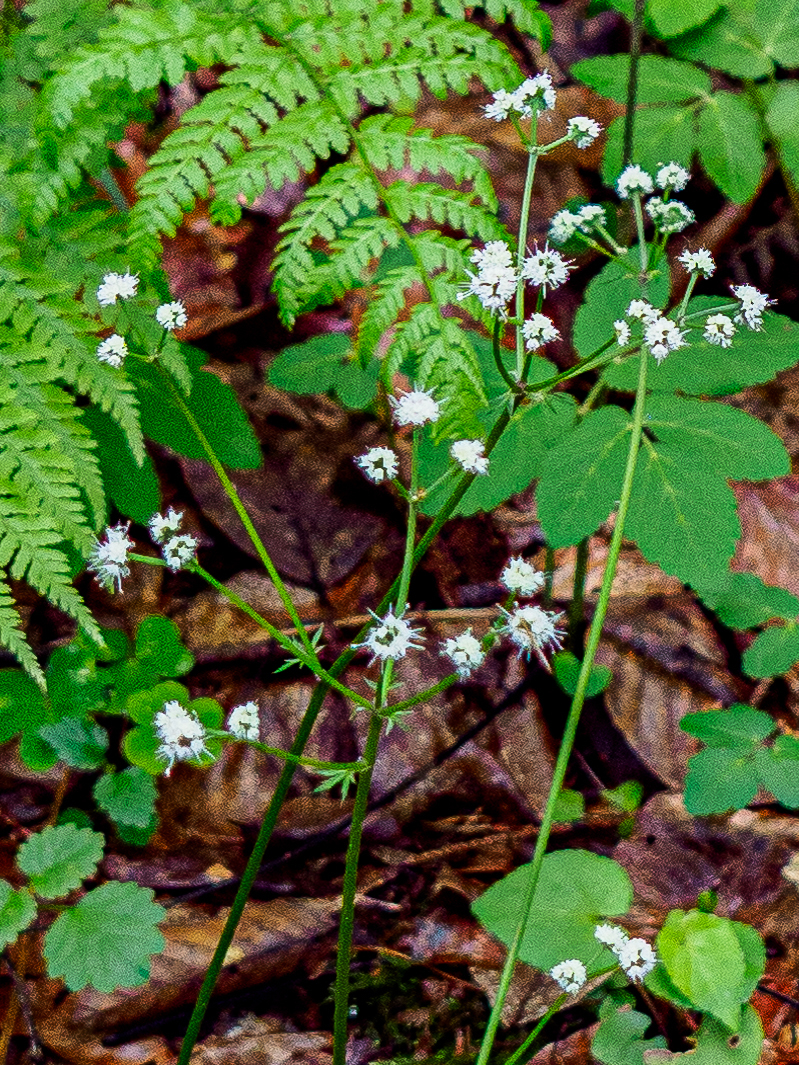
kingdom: Plantae
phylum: Tracheophyta
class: Magnoliopsida
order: Apiales
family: Apiaceae
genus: Sanicula
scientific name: Sanicula europaea
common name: Sanicle
